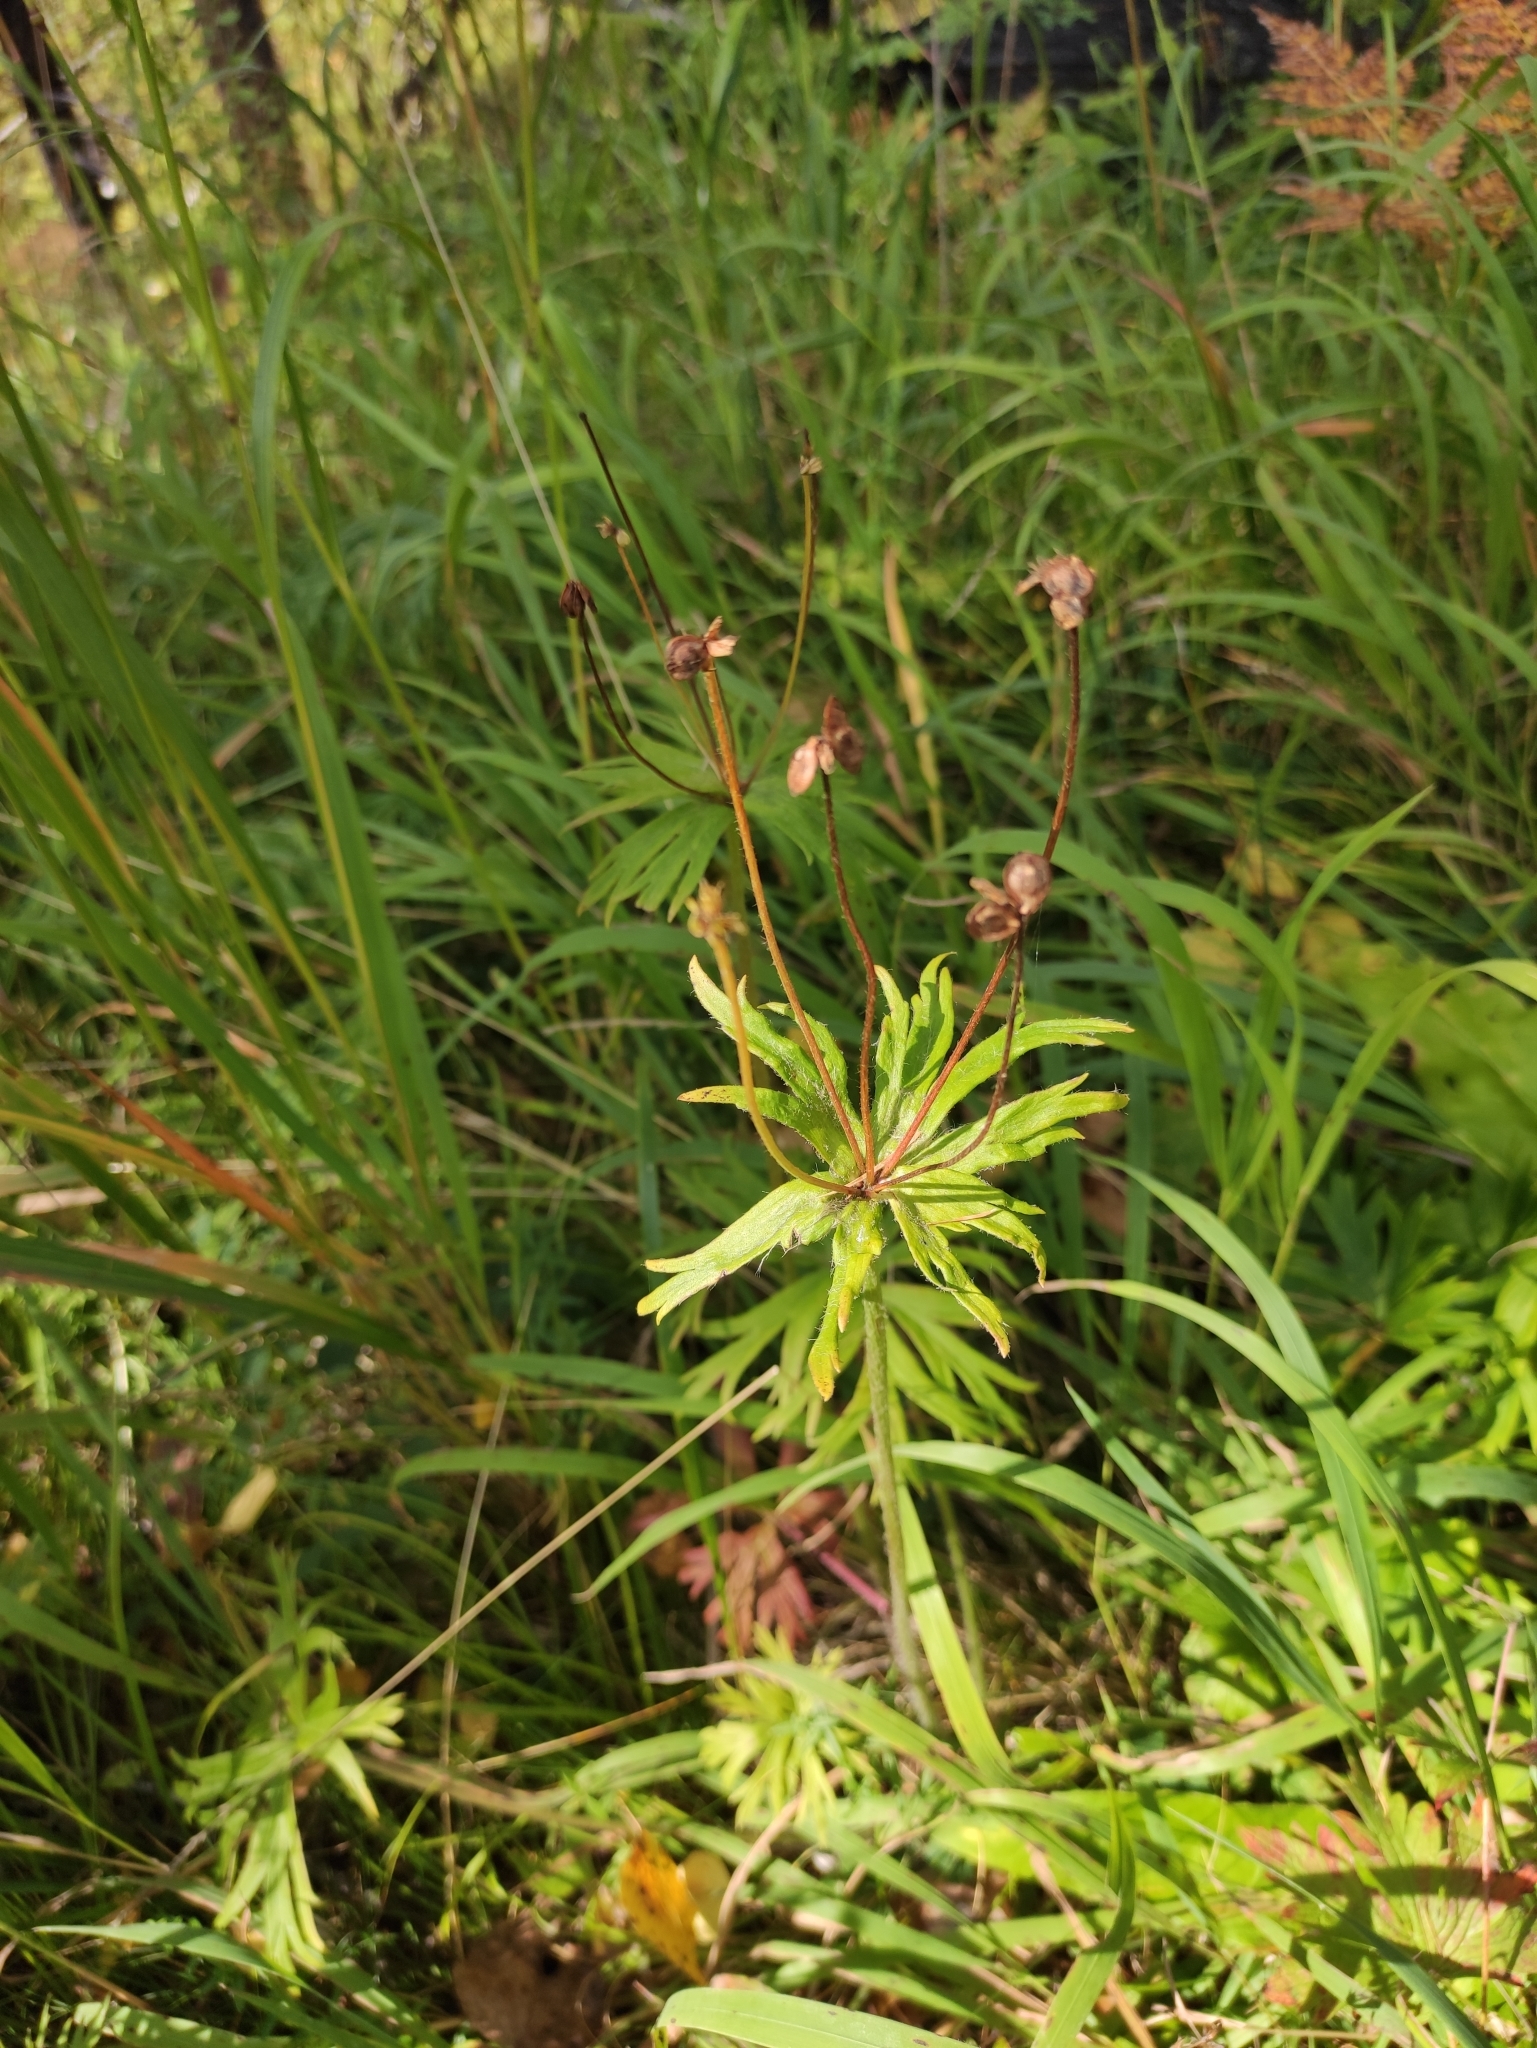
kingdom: Plantae
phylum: Tracheophyta
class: Magnoliopsida
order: Ranunculales
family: Ranunculaceae
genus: Anemonastrum
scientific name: Anemonastrum narcissiflorum
